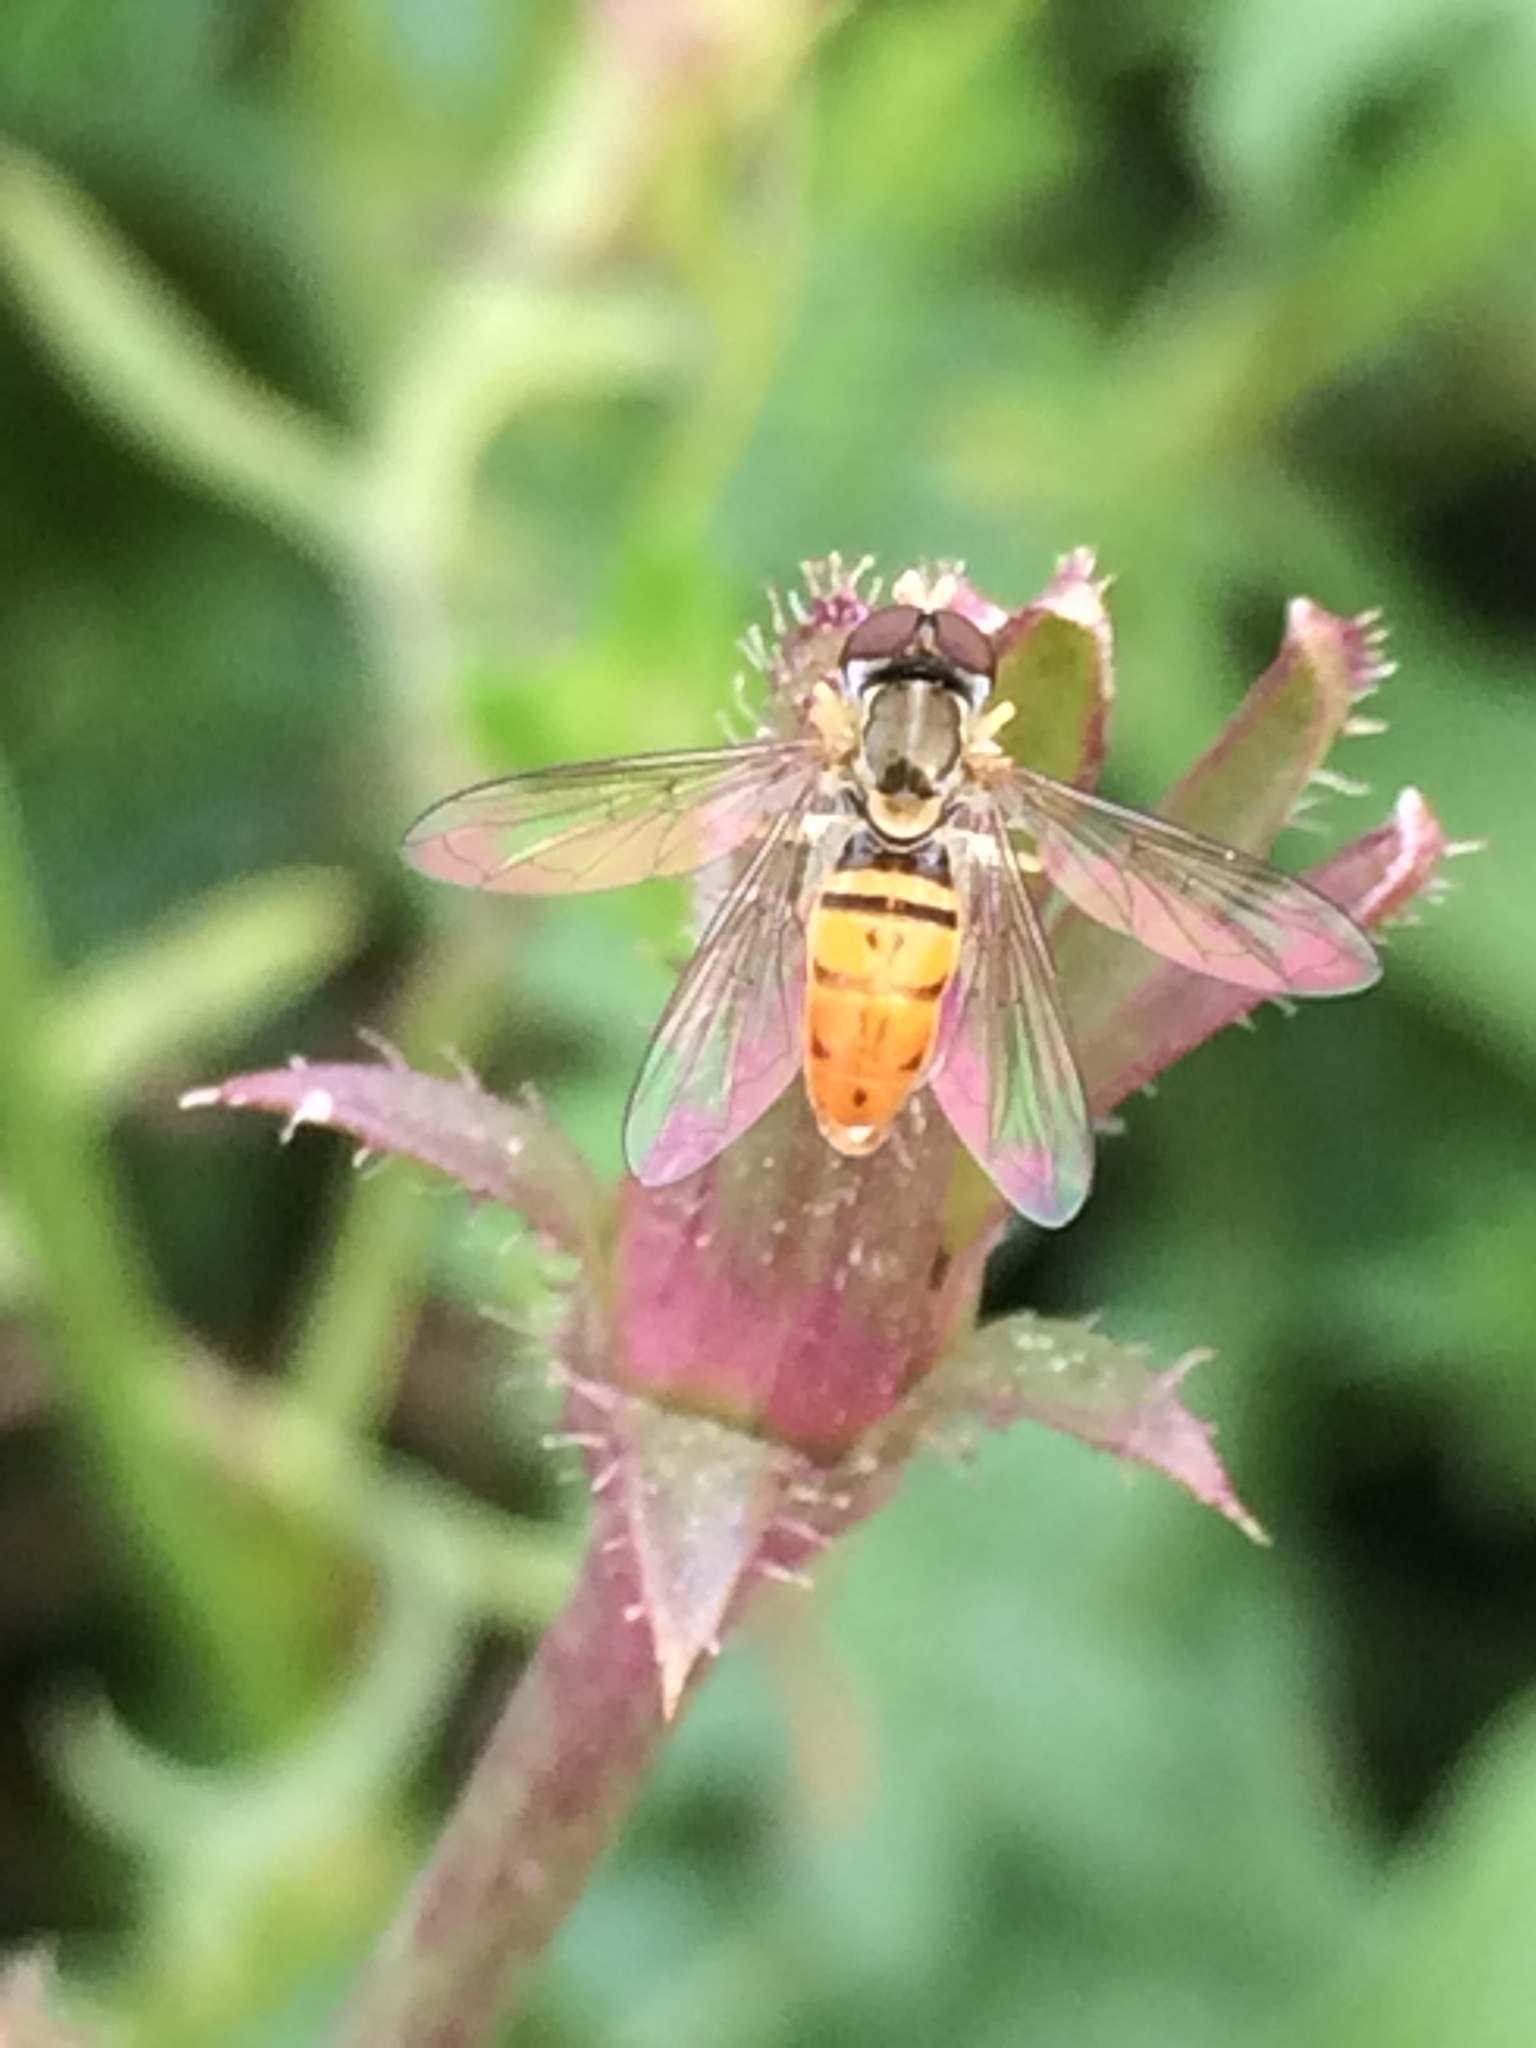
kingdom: Animalia
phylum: Arthropoda
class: Insecta
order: Diptera
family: Syrphidae
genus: Toxomerus
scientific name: Toxomerus marginatus
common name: Syrphid fly
